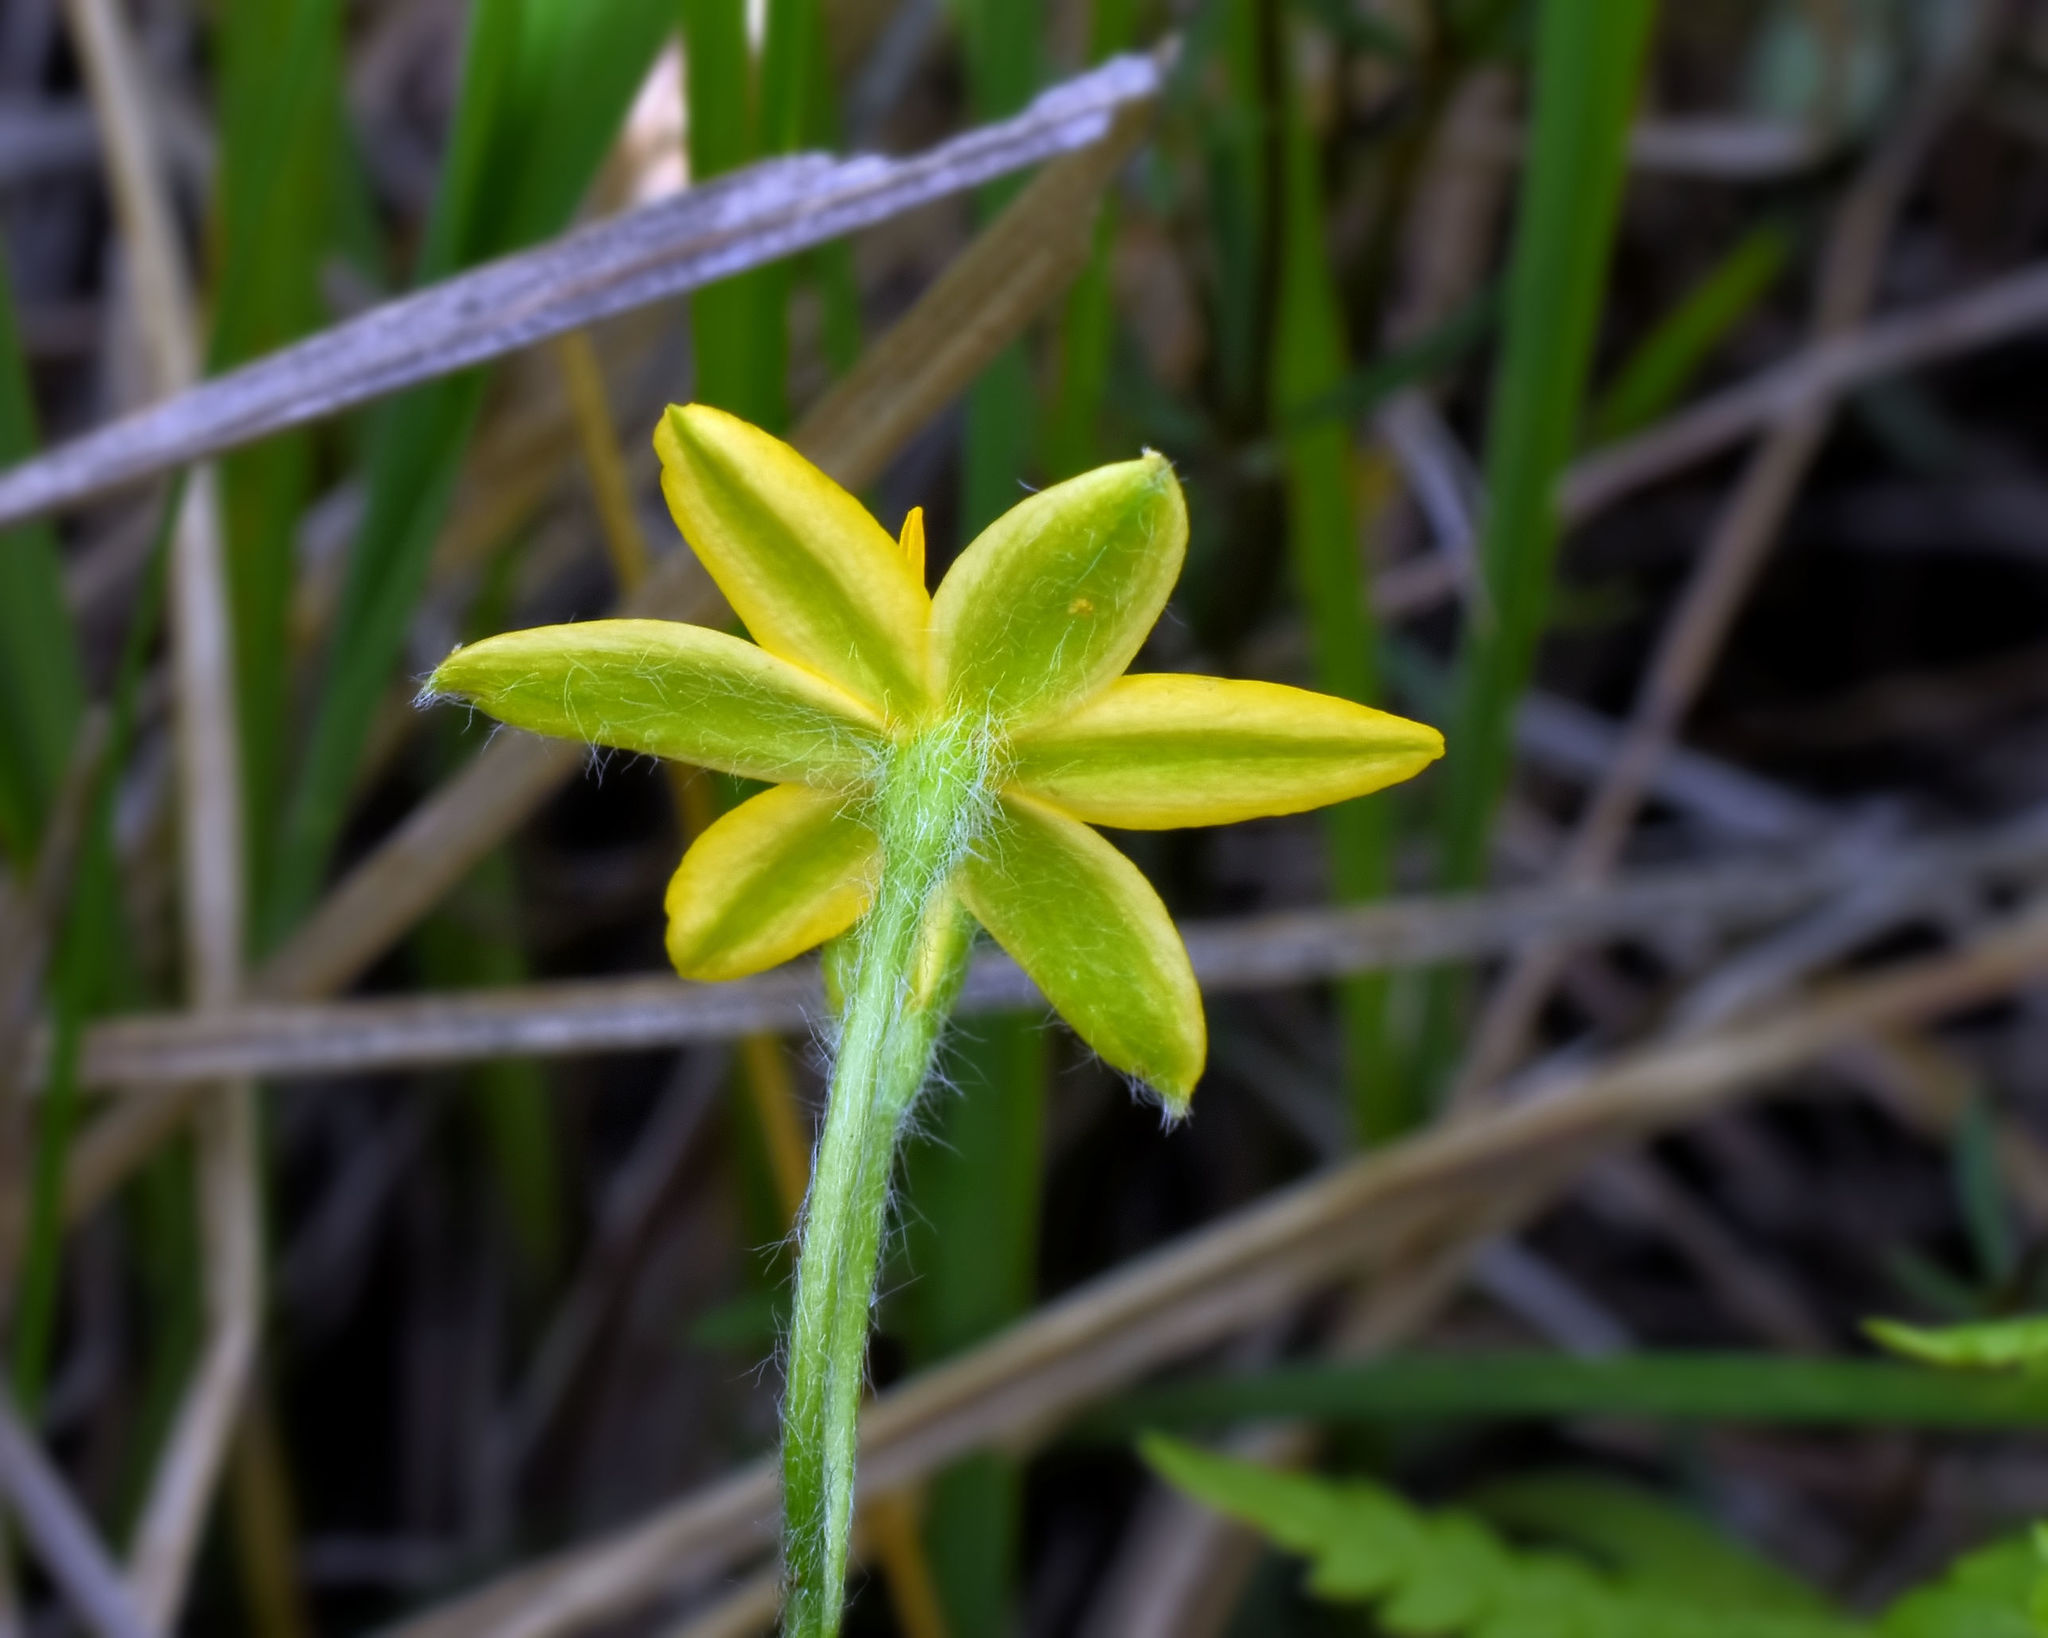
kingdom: Plantae
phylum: Tracheophyta
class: Liliopsida
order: Asparagales
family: Hypoxidaceae
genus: Hypoxis
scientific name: Hypoxis hirsuta
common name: Common goldstar
